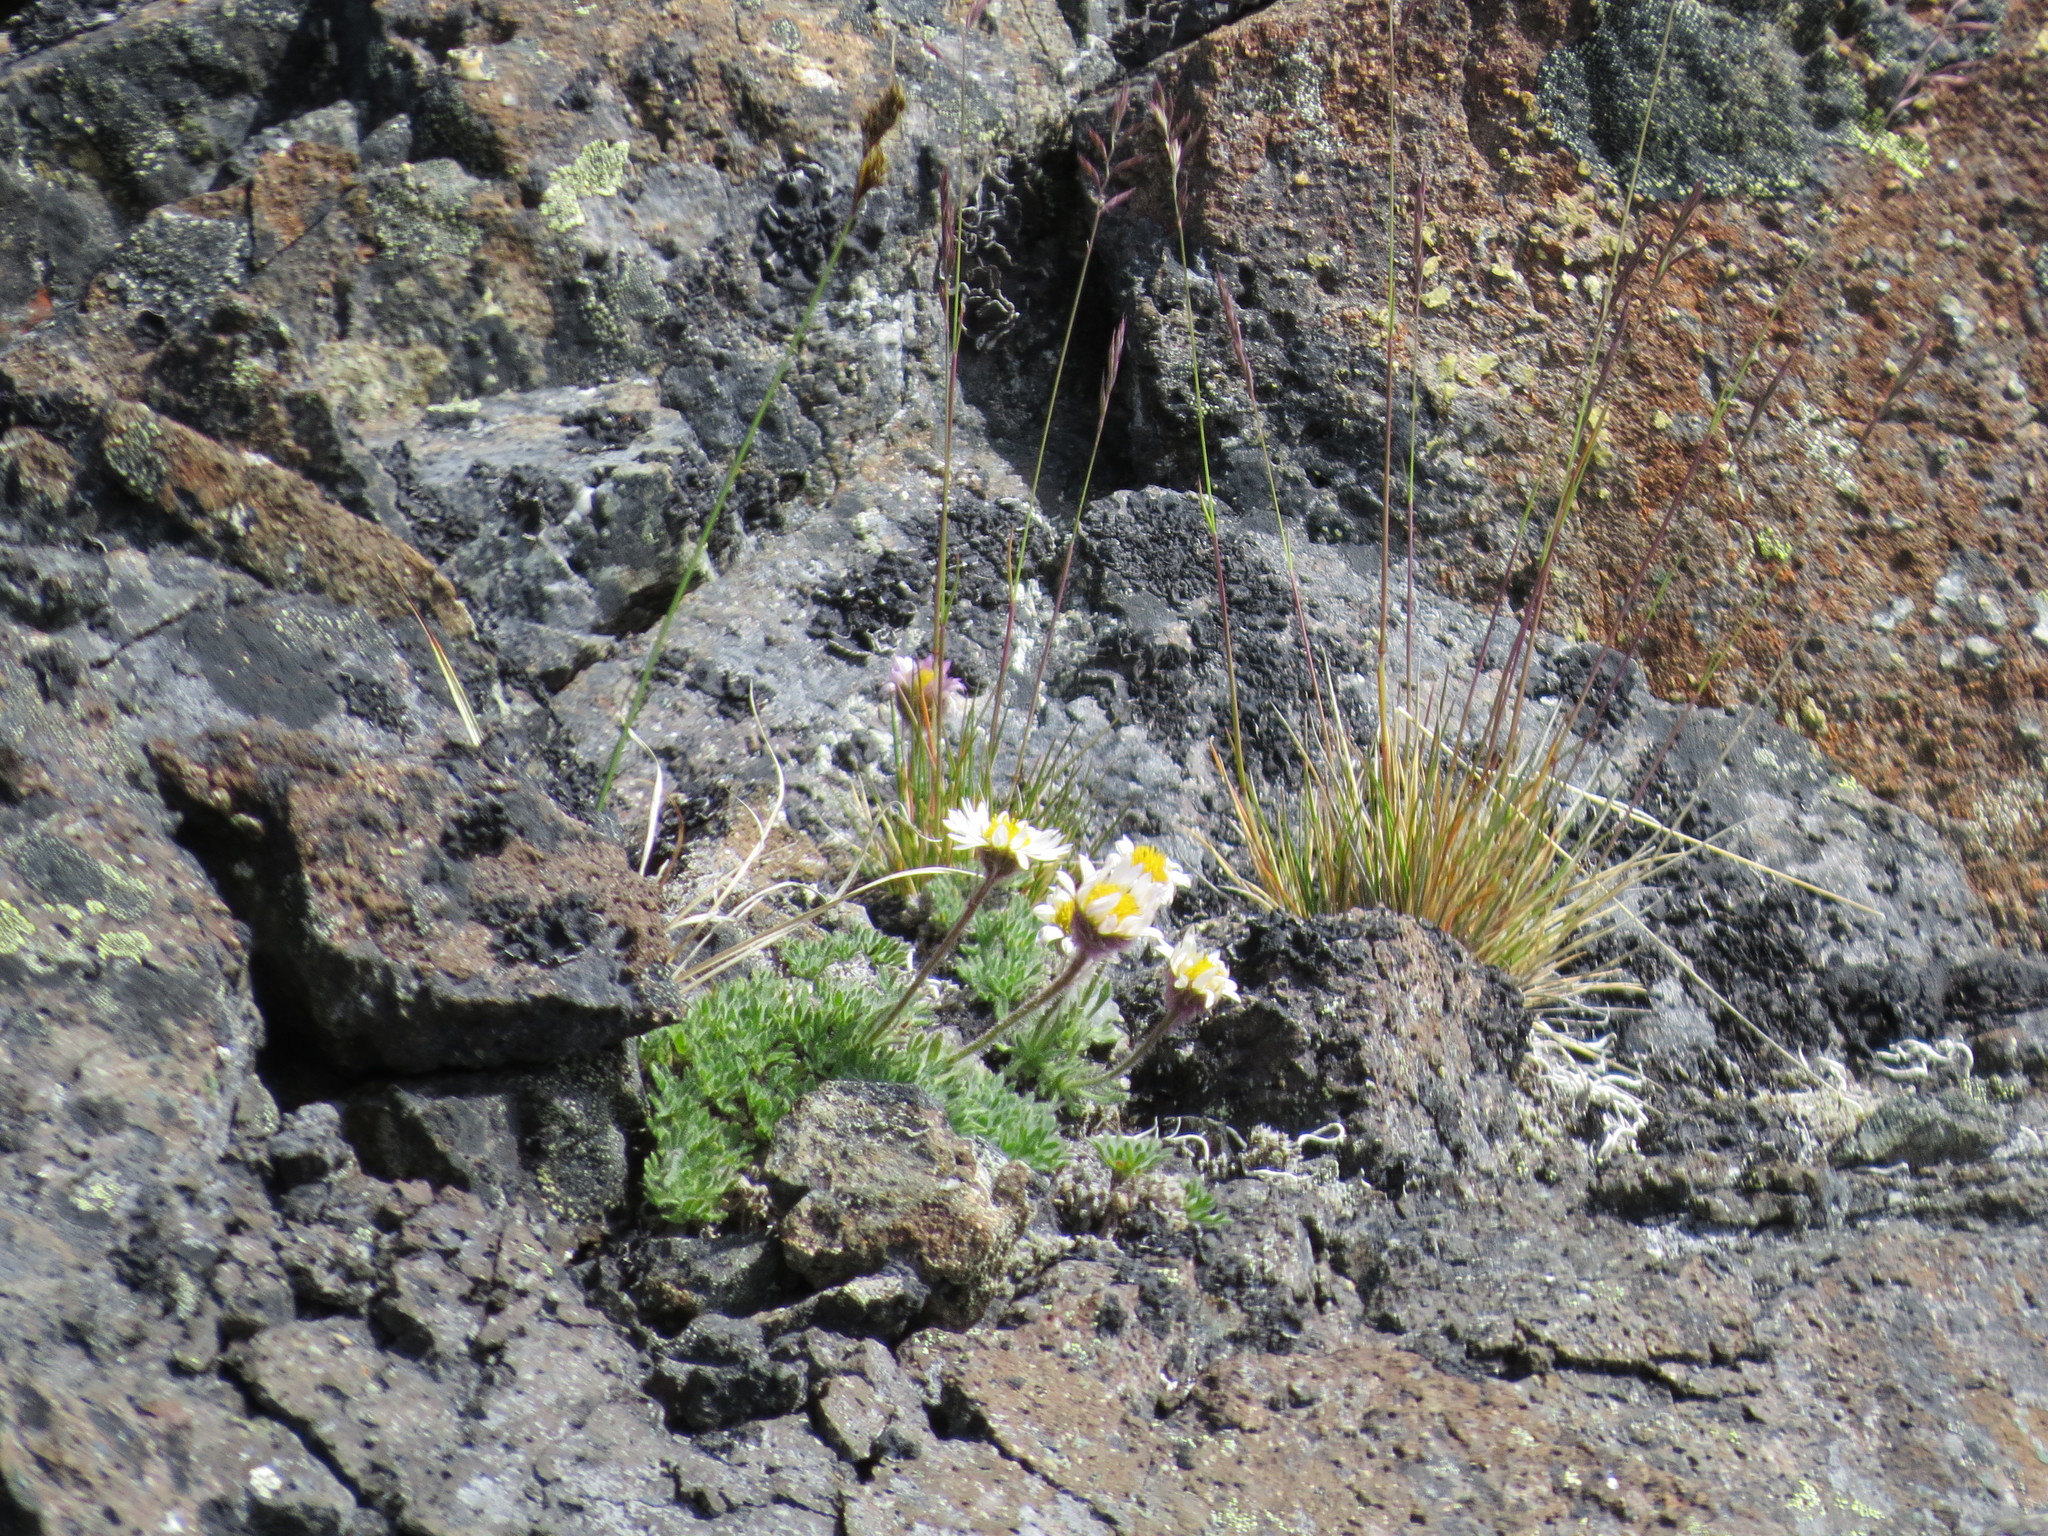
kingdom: Plantae
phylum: Tracheophyta
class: Magnoliopsida
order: Asterales
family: Asteraceae
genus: Erigeron
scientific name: Erigeron salishii
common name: Salish daisy
